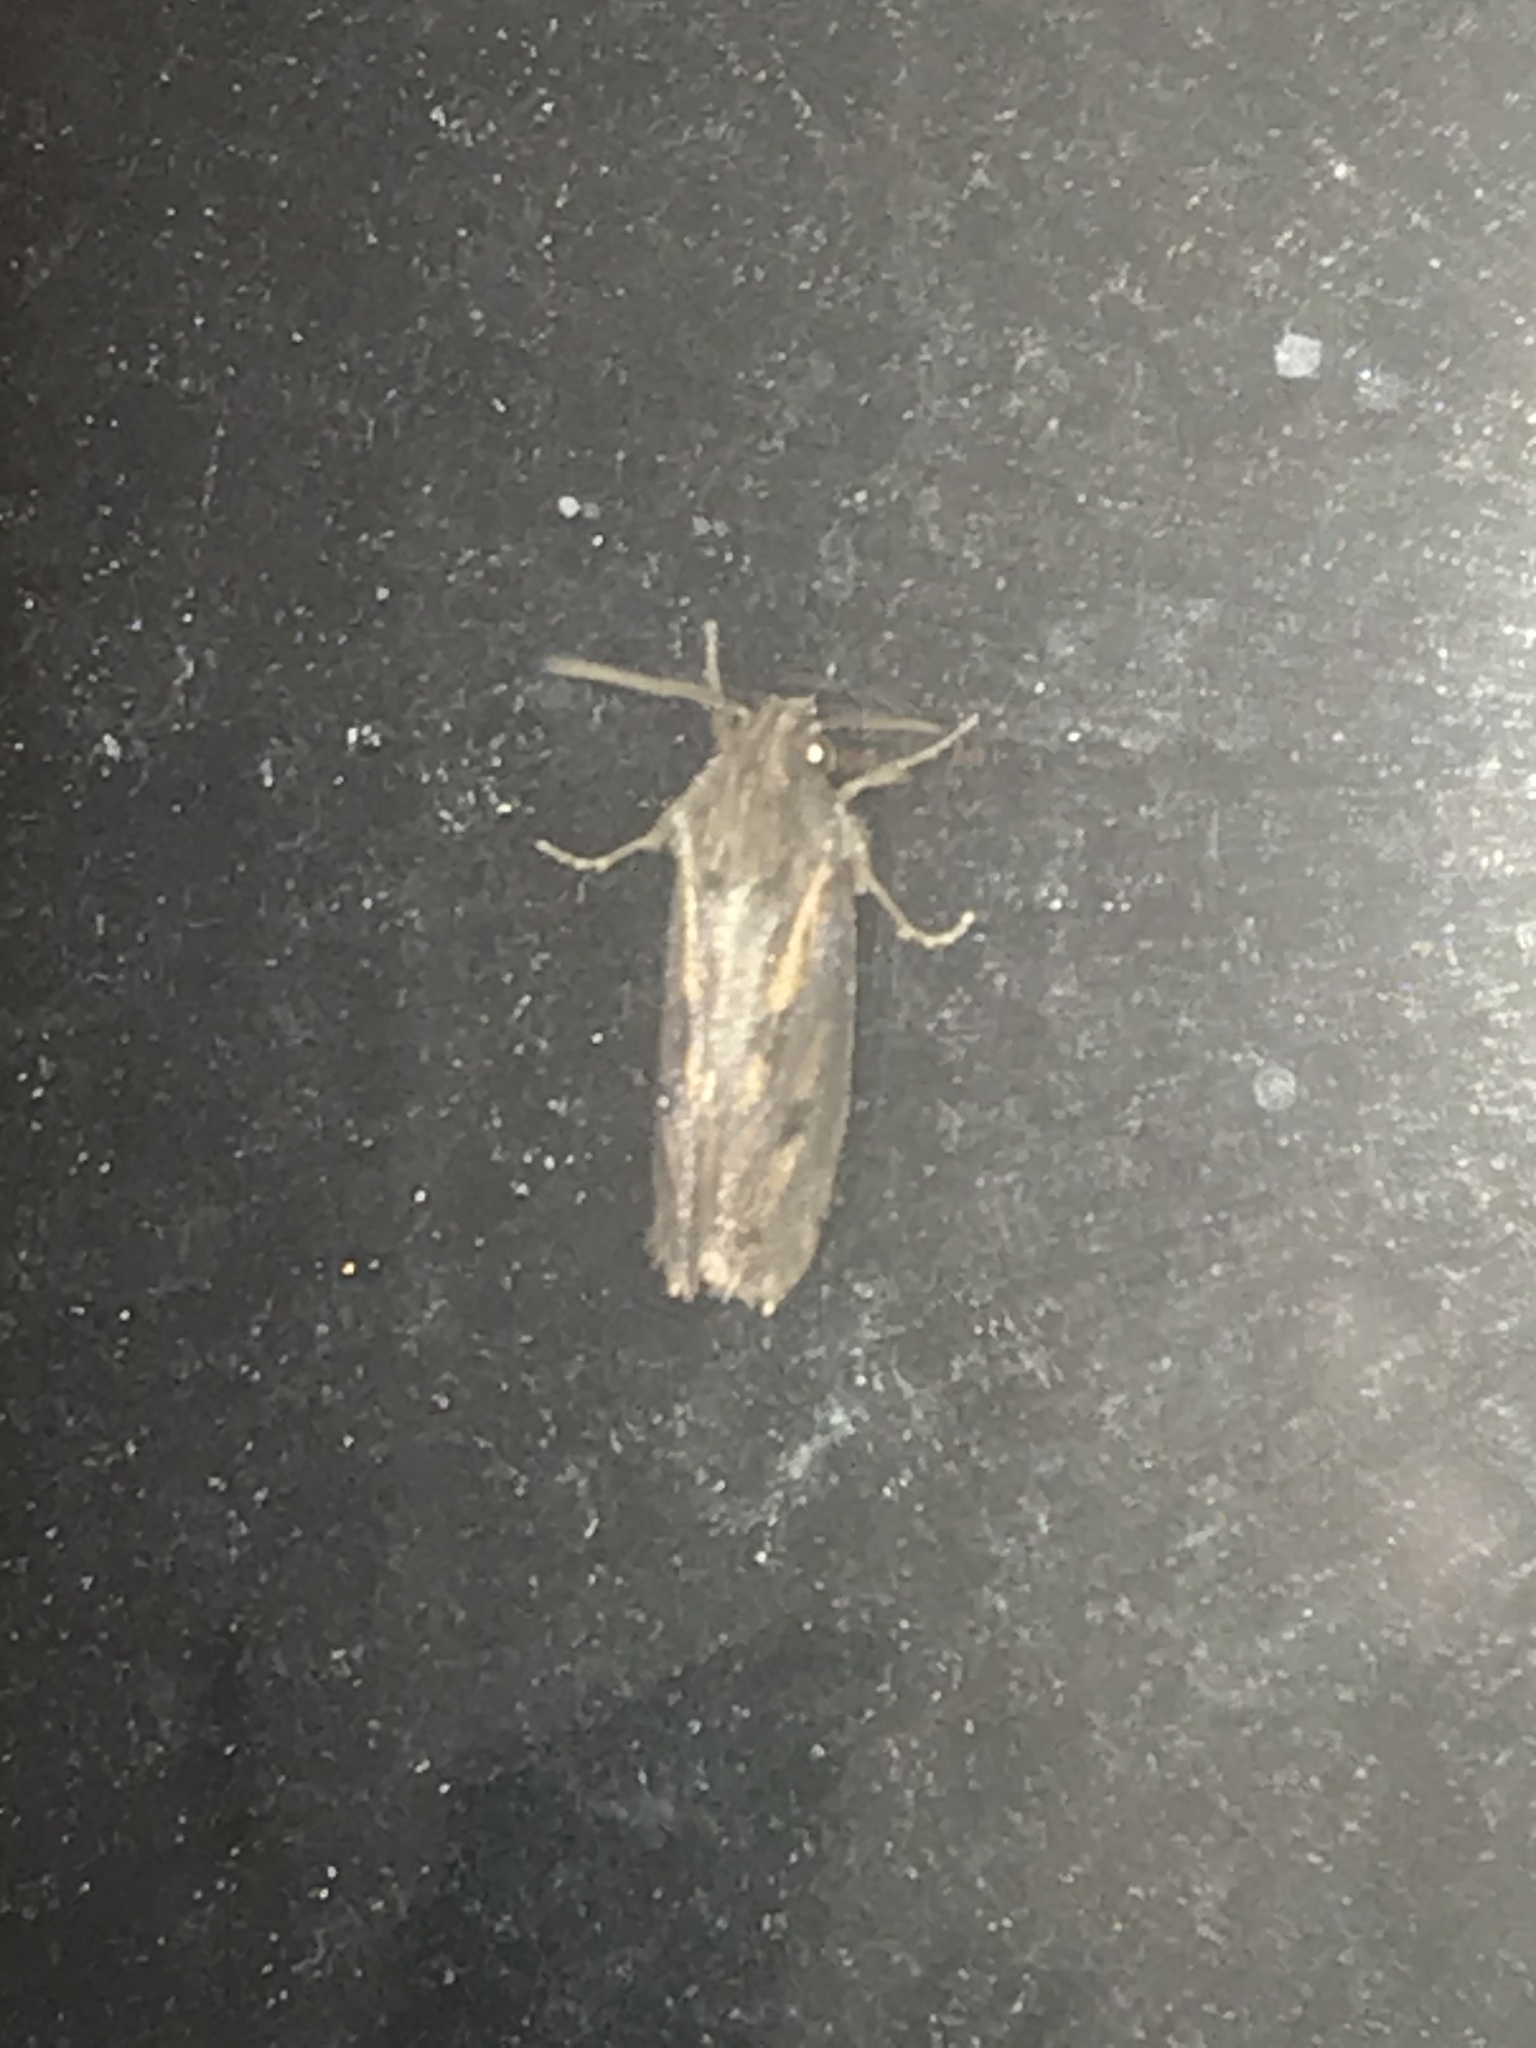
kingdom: Animalia
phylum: Arthropoda
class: Insecta
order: Lepidoptera
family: Tineidae
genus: Acrolophus
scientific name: Acrolophus popeanella
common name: Clemens' grass tubeworm moth
